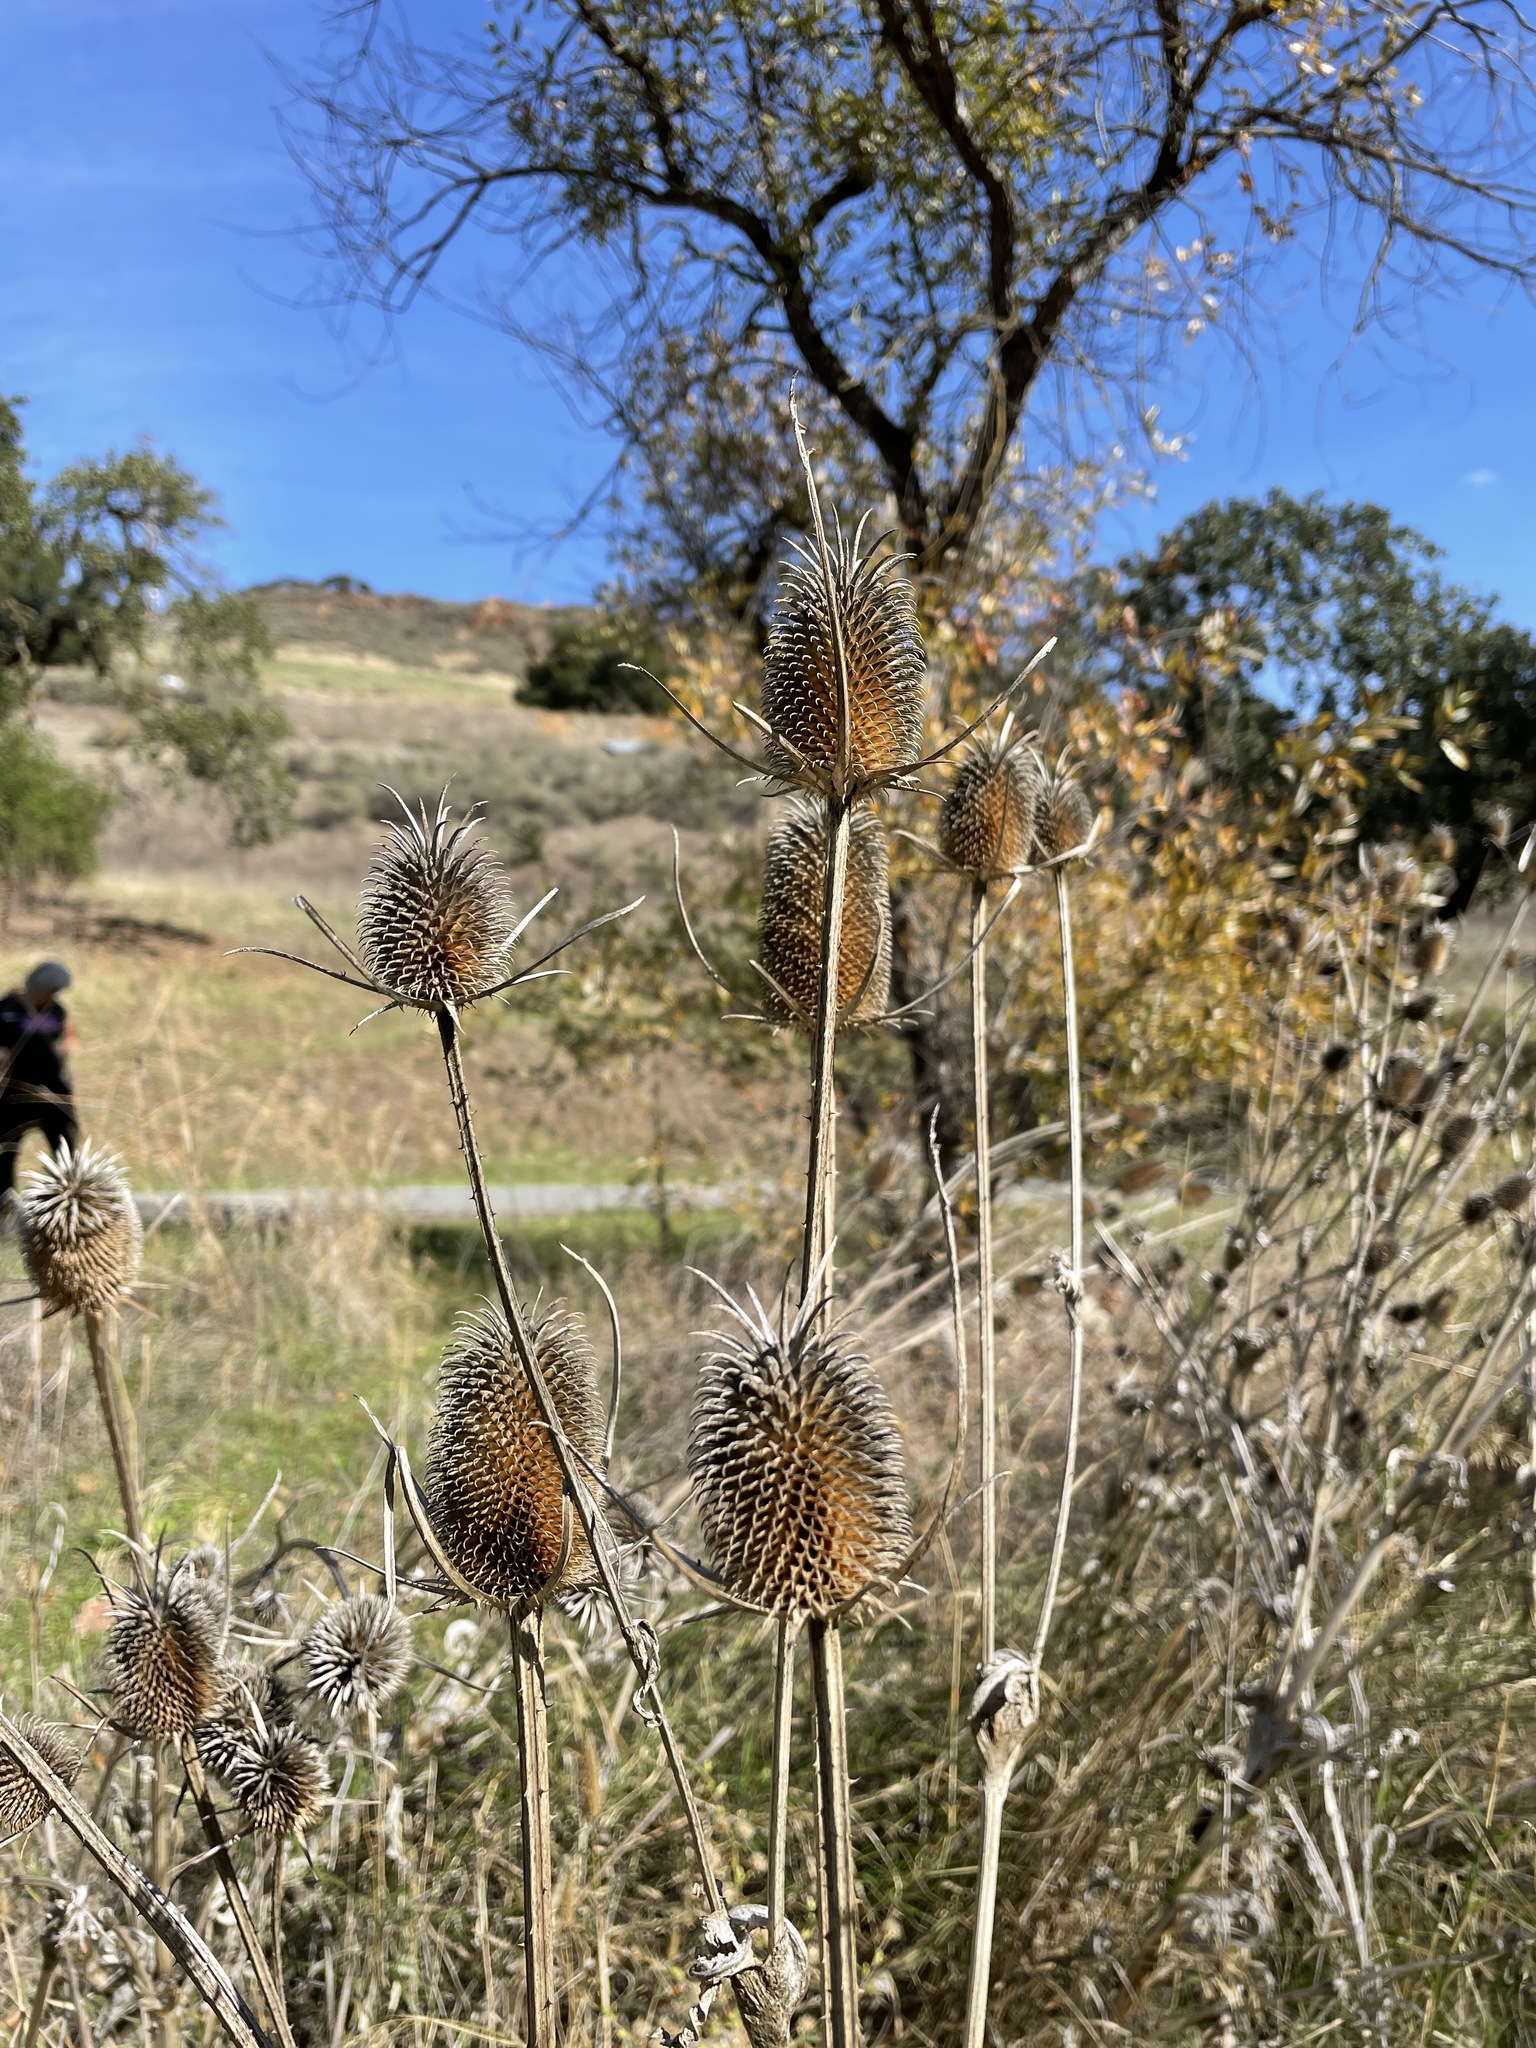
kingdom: Plantae
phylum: Tracheophyta
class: Magnoliopsida
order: Dipsacales
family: Caprifoliaceae
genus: Dipsacus
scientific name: Dipsacus sativus
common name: Fuller's teasel
